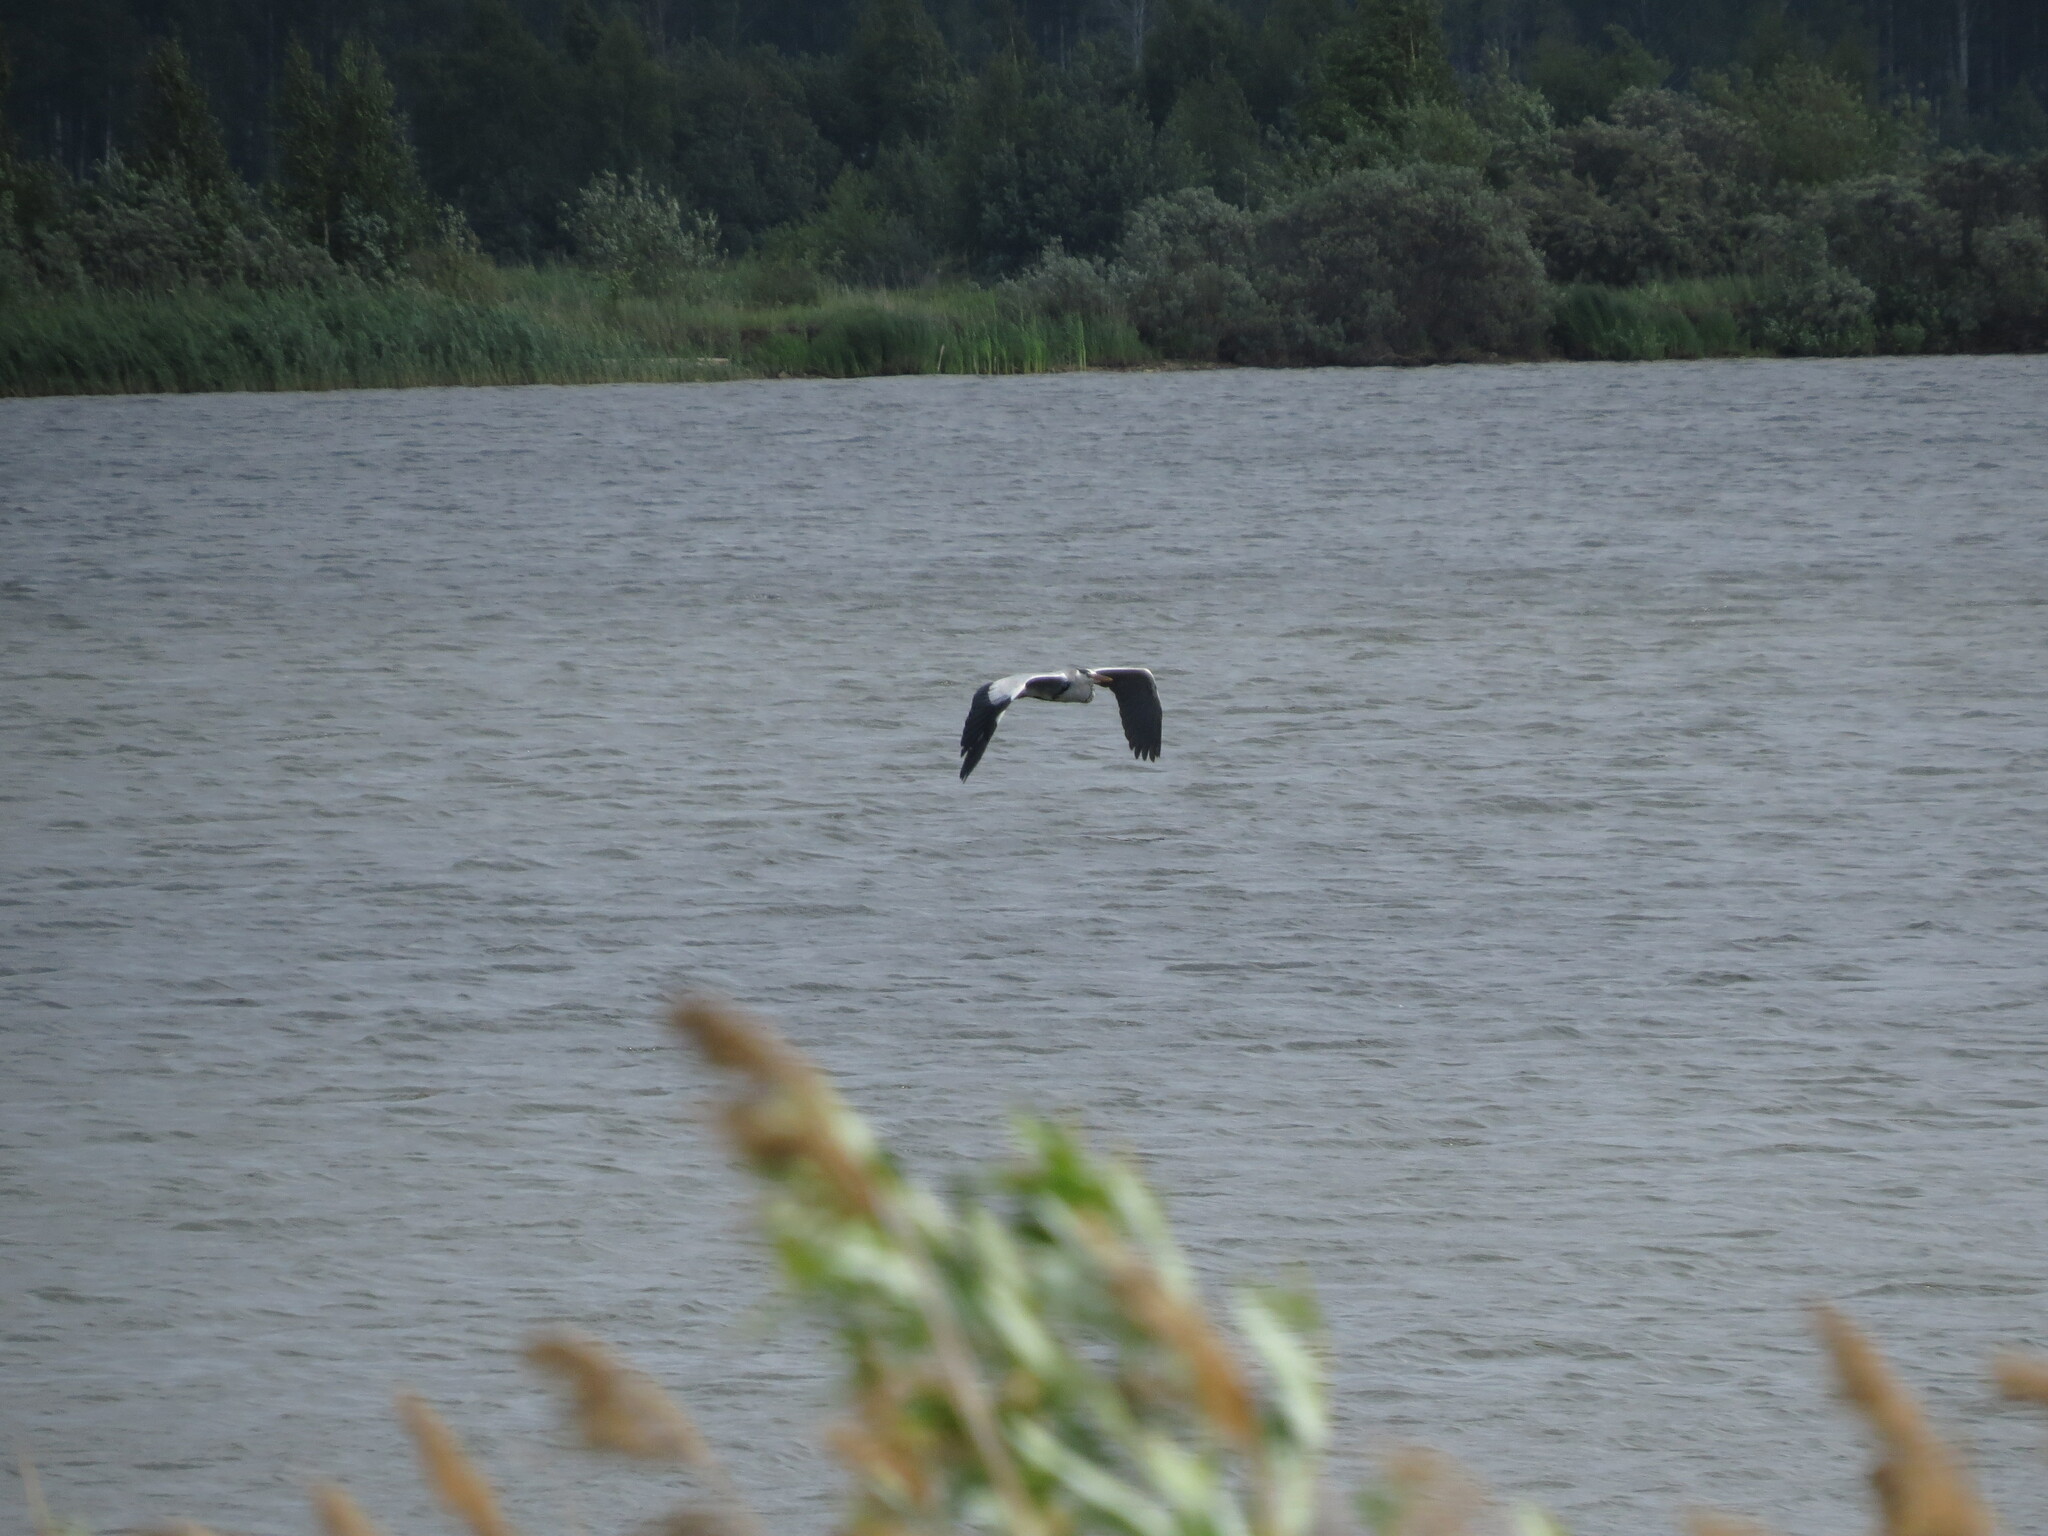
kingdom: Animalia
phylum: Chordata
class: Aves
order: Pelecaniformes
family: Ardeidae
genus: Ardea
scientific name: Ardea cinerea
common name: Grey heron
